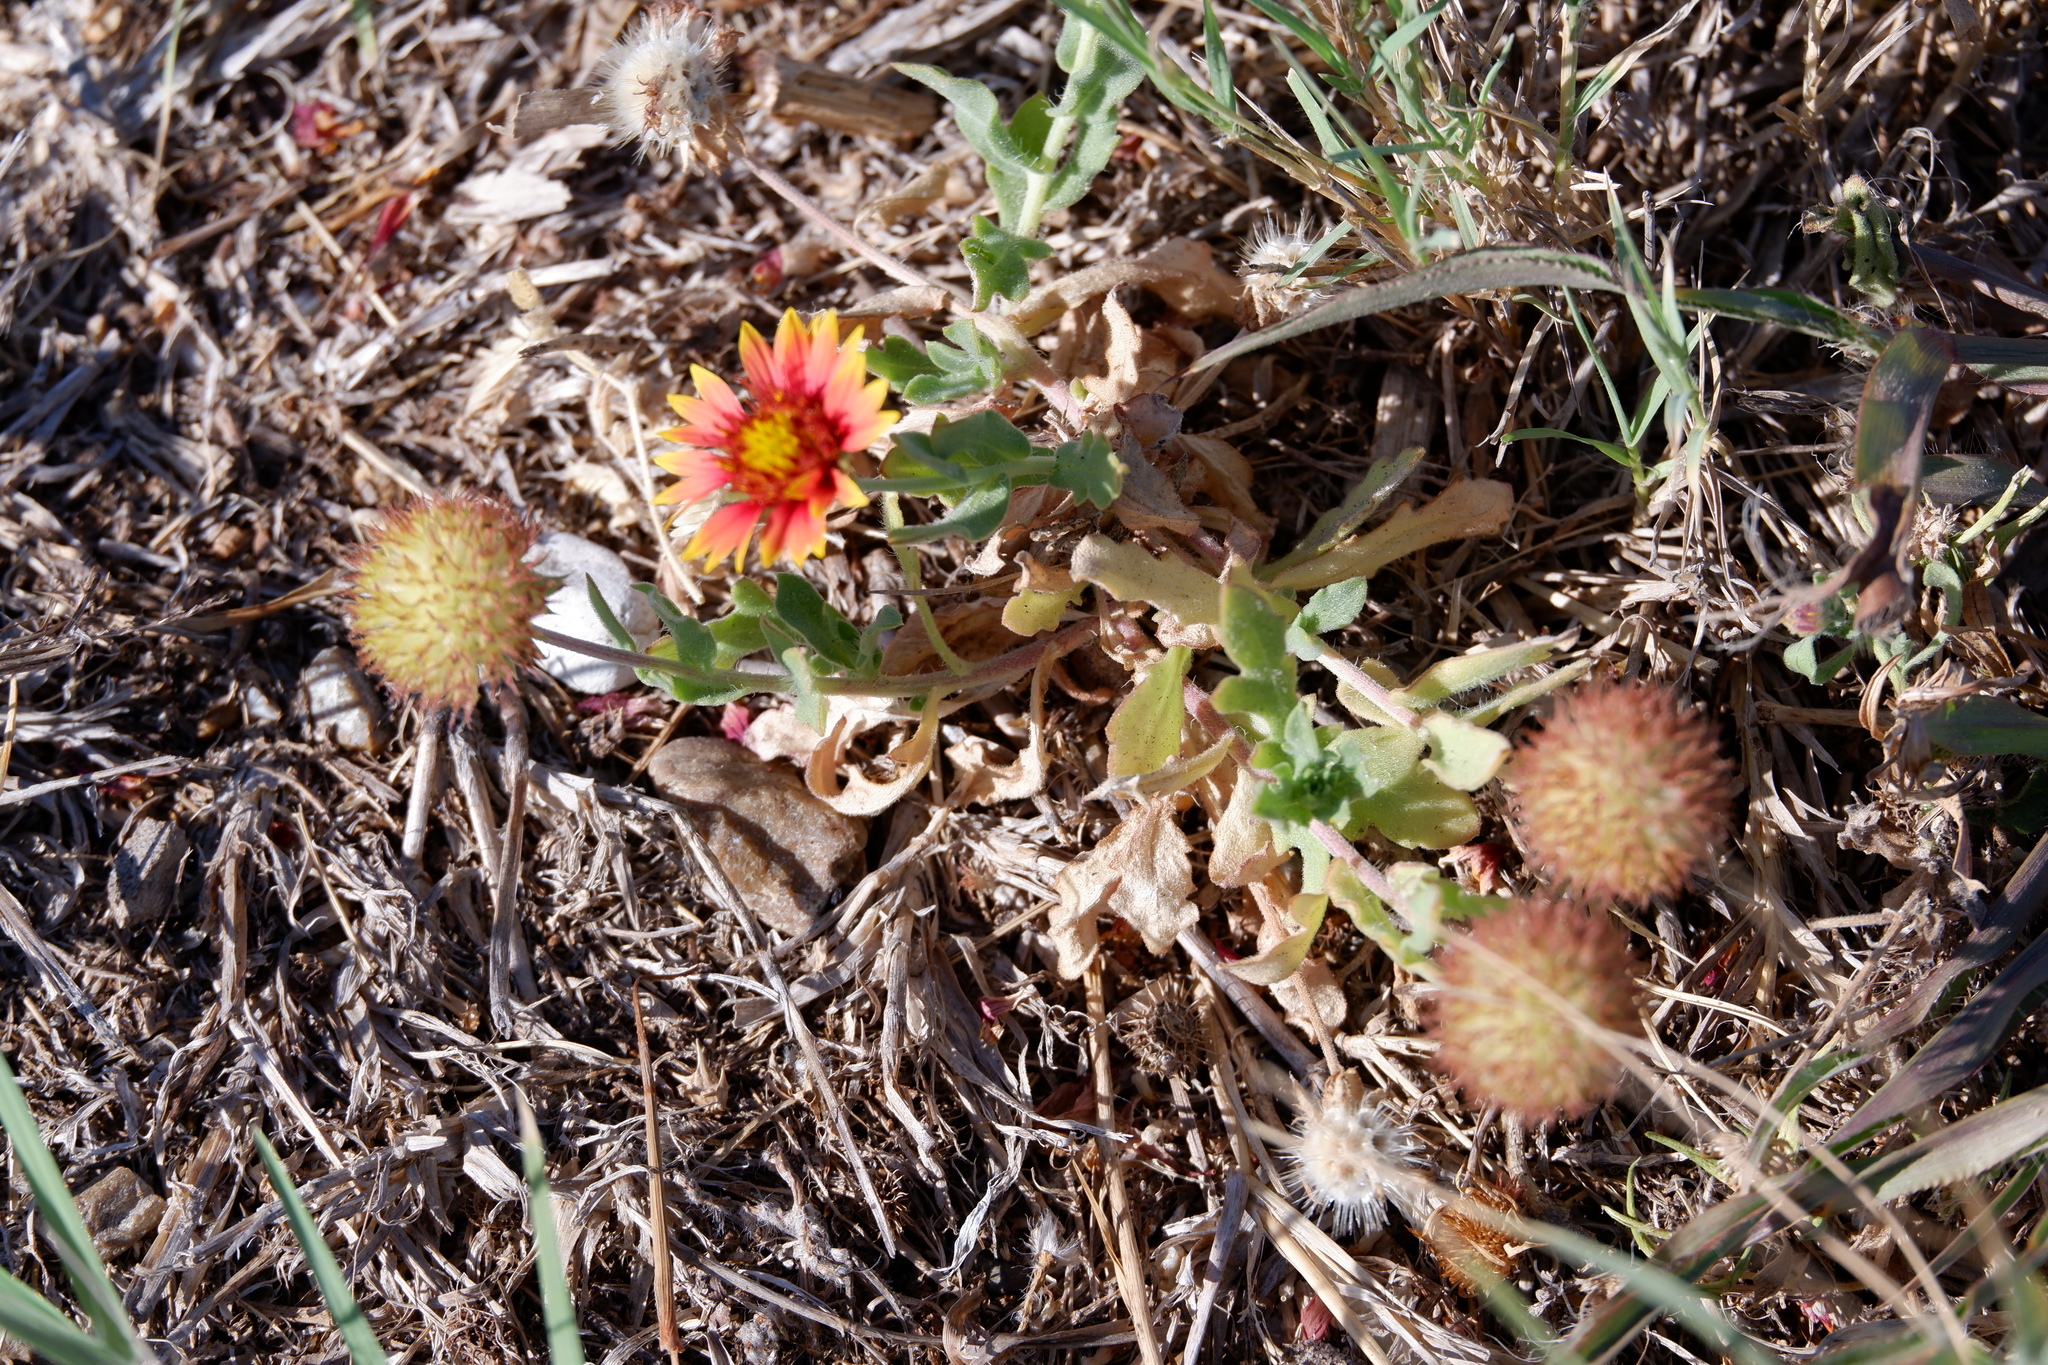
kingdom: Plantae
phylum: Tracheophyta
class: Magnoliopsida
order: Asterales
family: Asteraceae
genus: Gaillardia
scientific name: Gaillardia pulchella
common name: Firewheel
